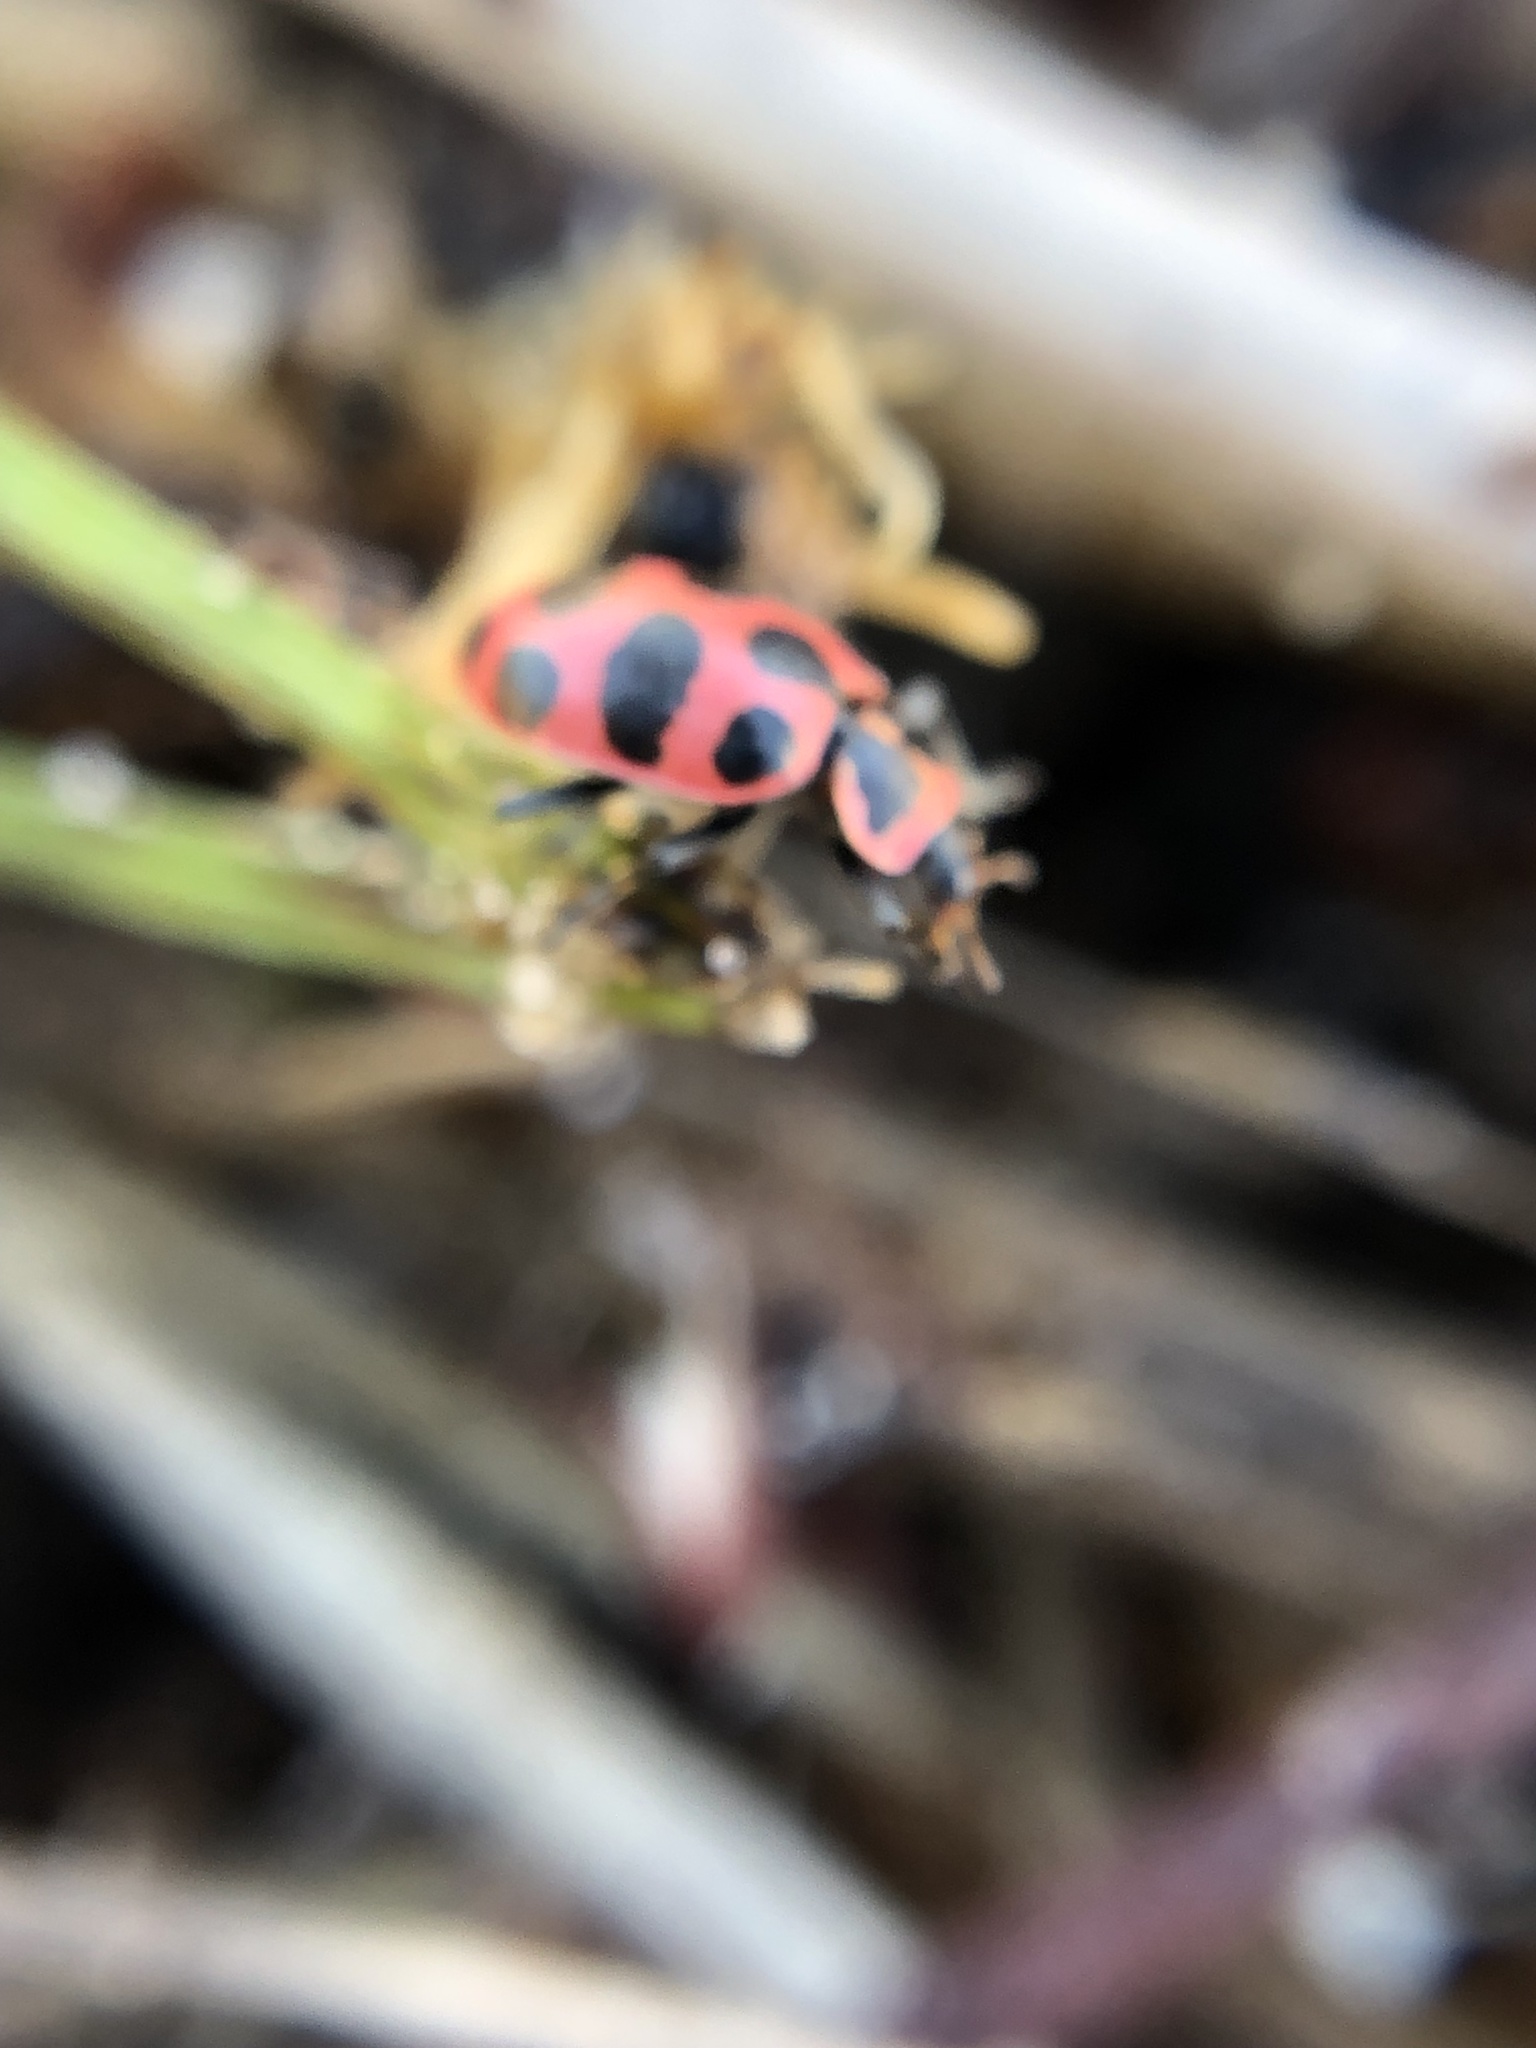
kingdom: Animalia
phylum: Arthropoda
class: Insecta
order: Coleoptera
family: Coccinellidae
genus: Coleomegilla
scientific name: Coleomegilla maculata
